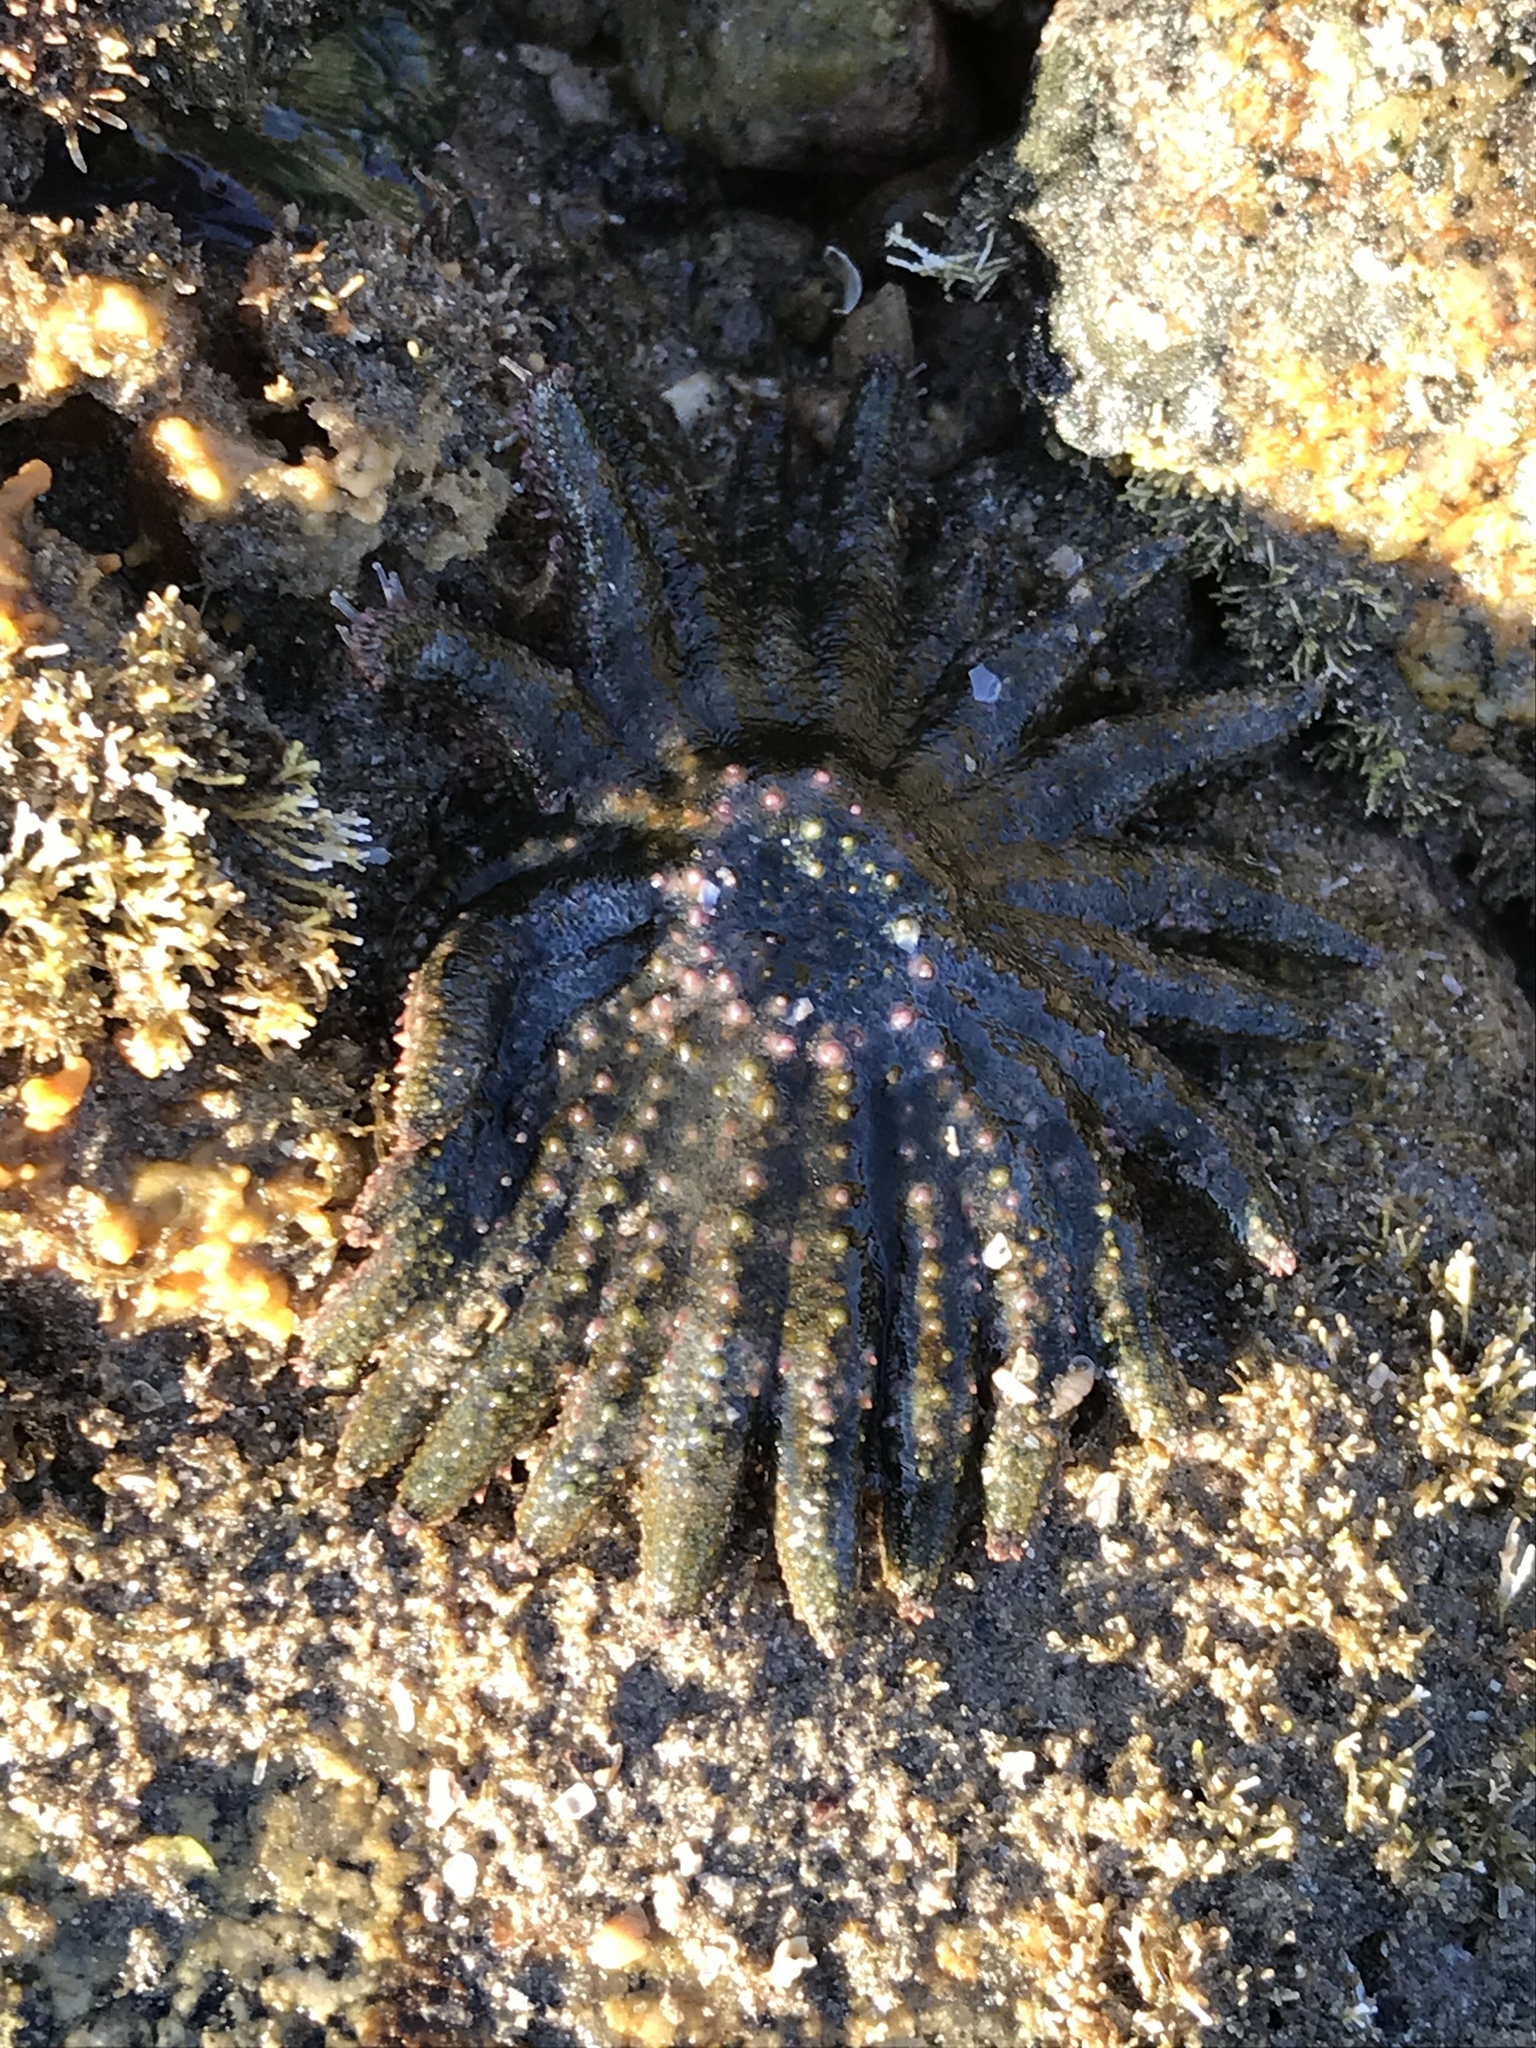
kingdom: Animalia
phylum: Echinodermata
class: Asteroidea
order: Forcipulatida
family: Heliasteridae
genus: Heliaster
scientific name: Heliaster kubiniji
